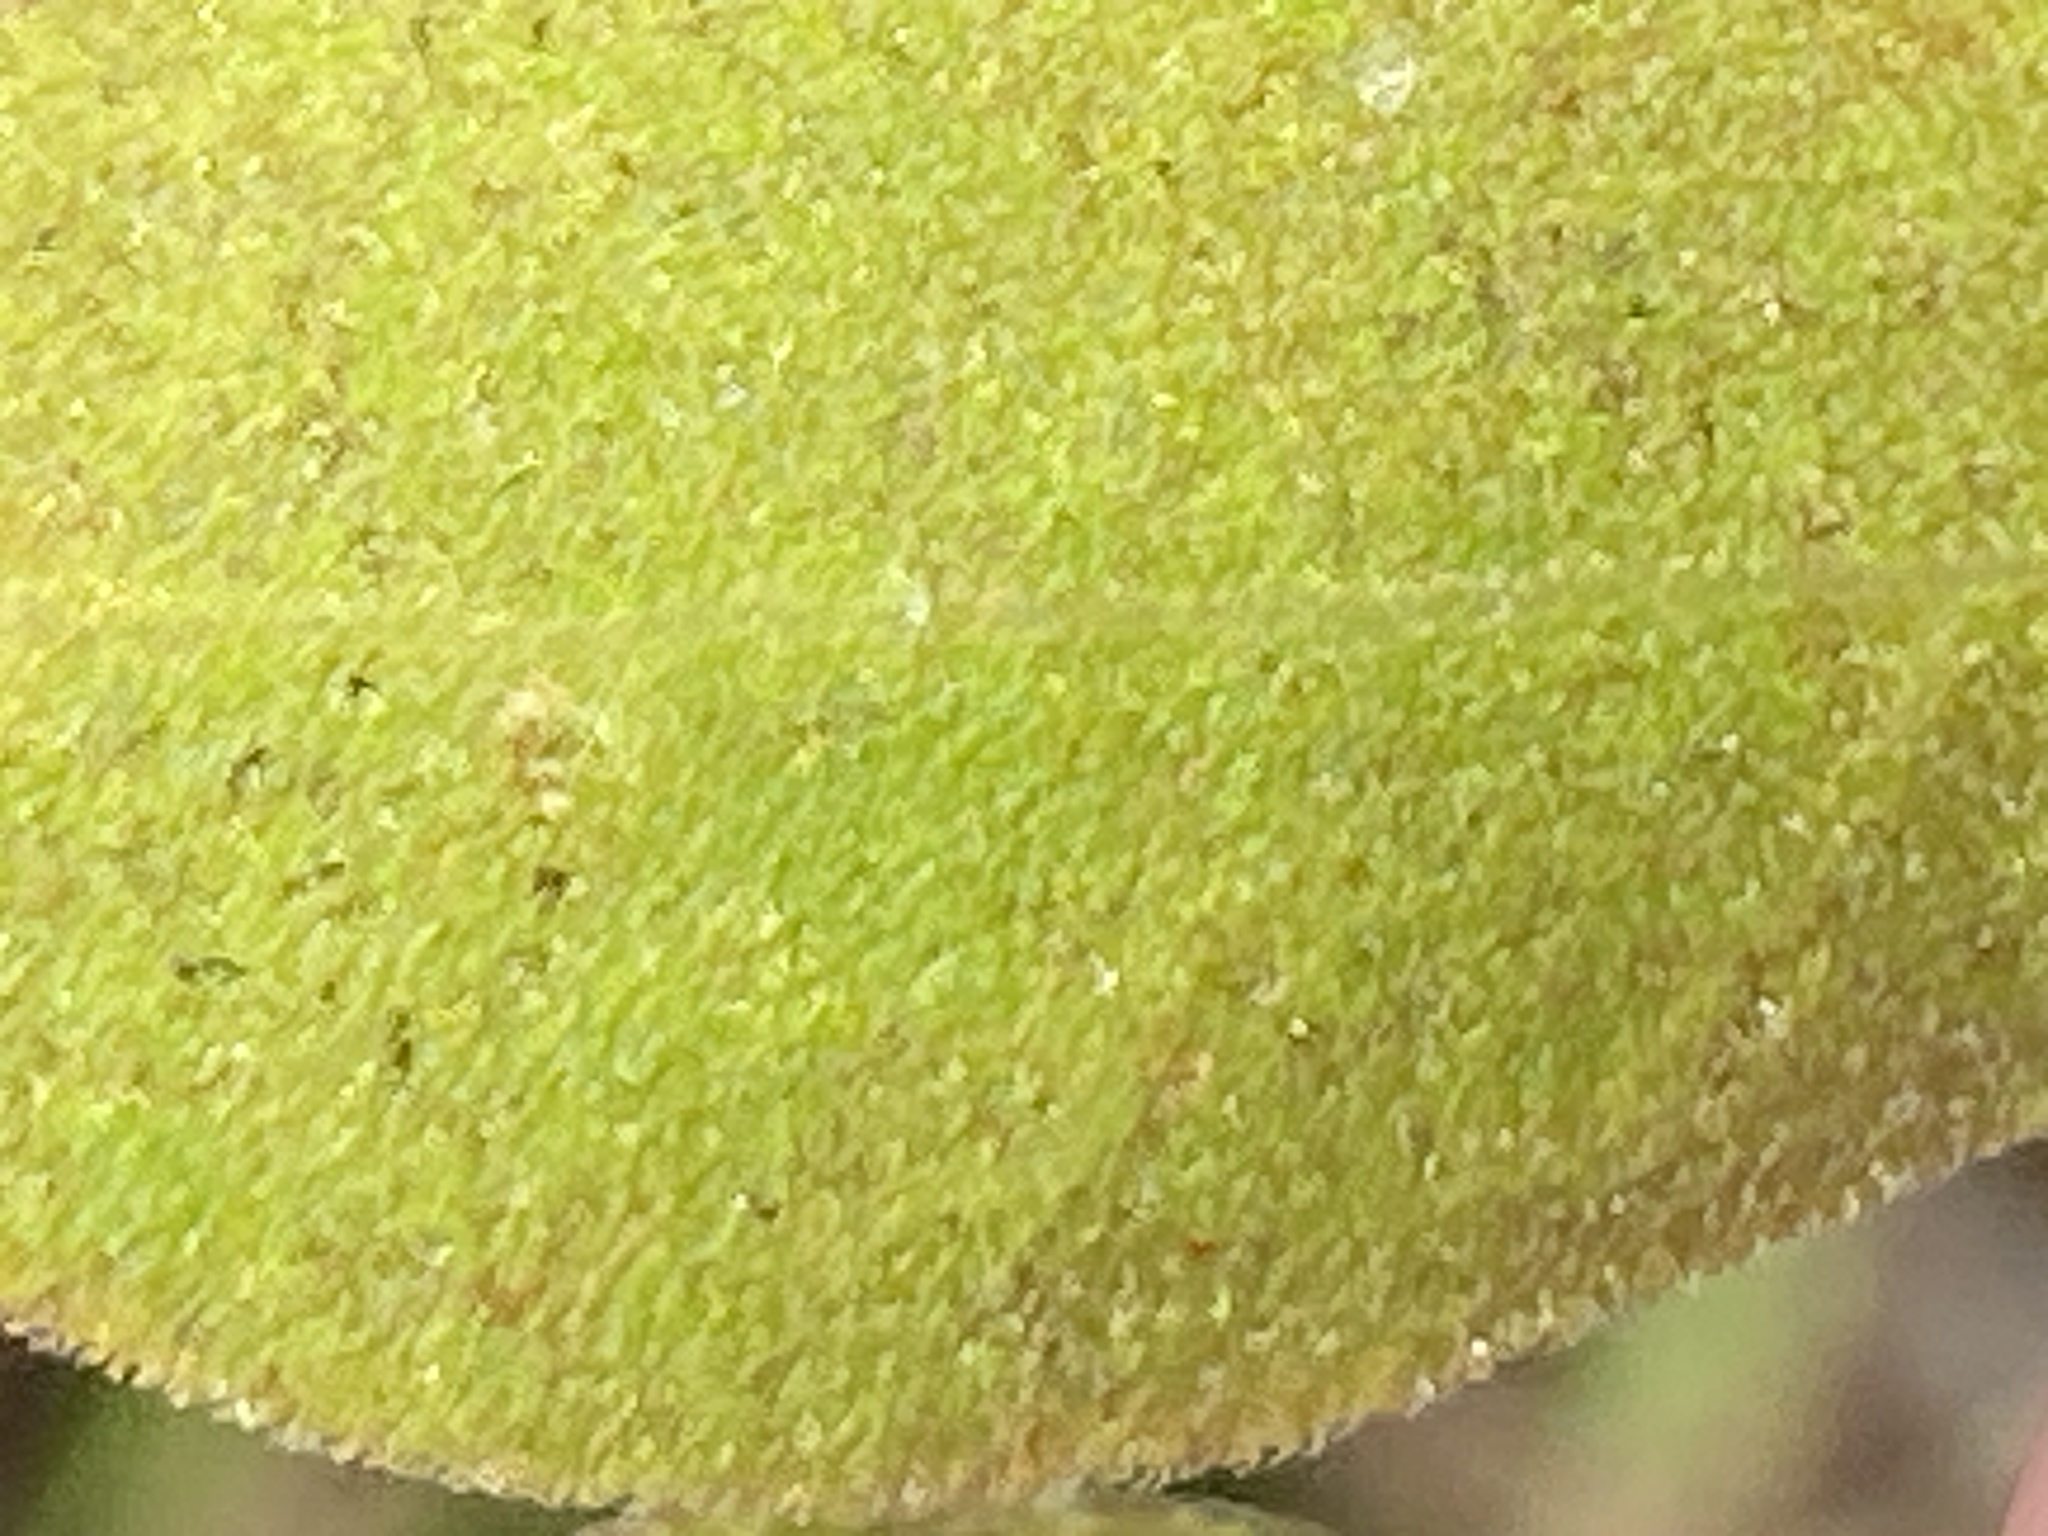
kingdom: Plantae
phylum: Tracheophyta
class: Magnoliopsida
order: Asterales
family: Asteraceae
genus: Sericocarpus
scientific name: Sericocarpus tortifolius
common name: Dixie aster
